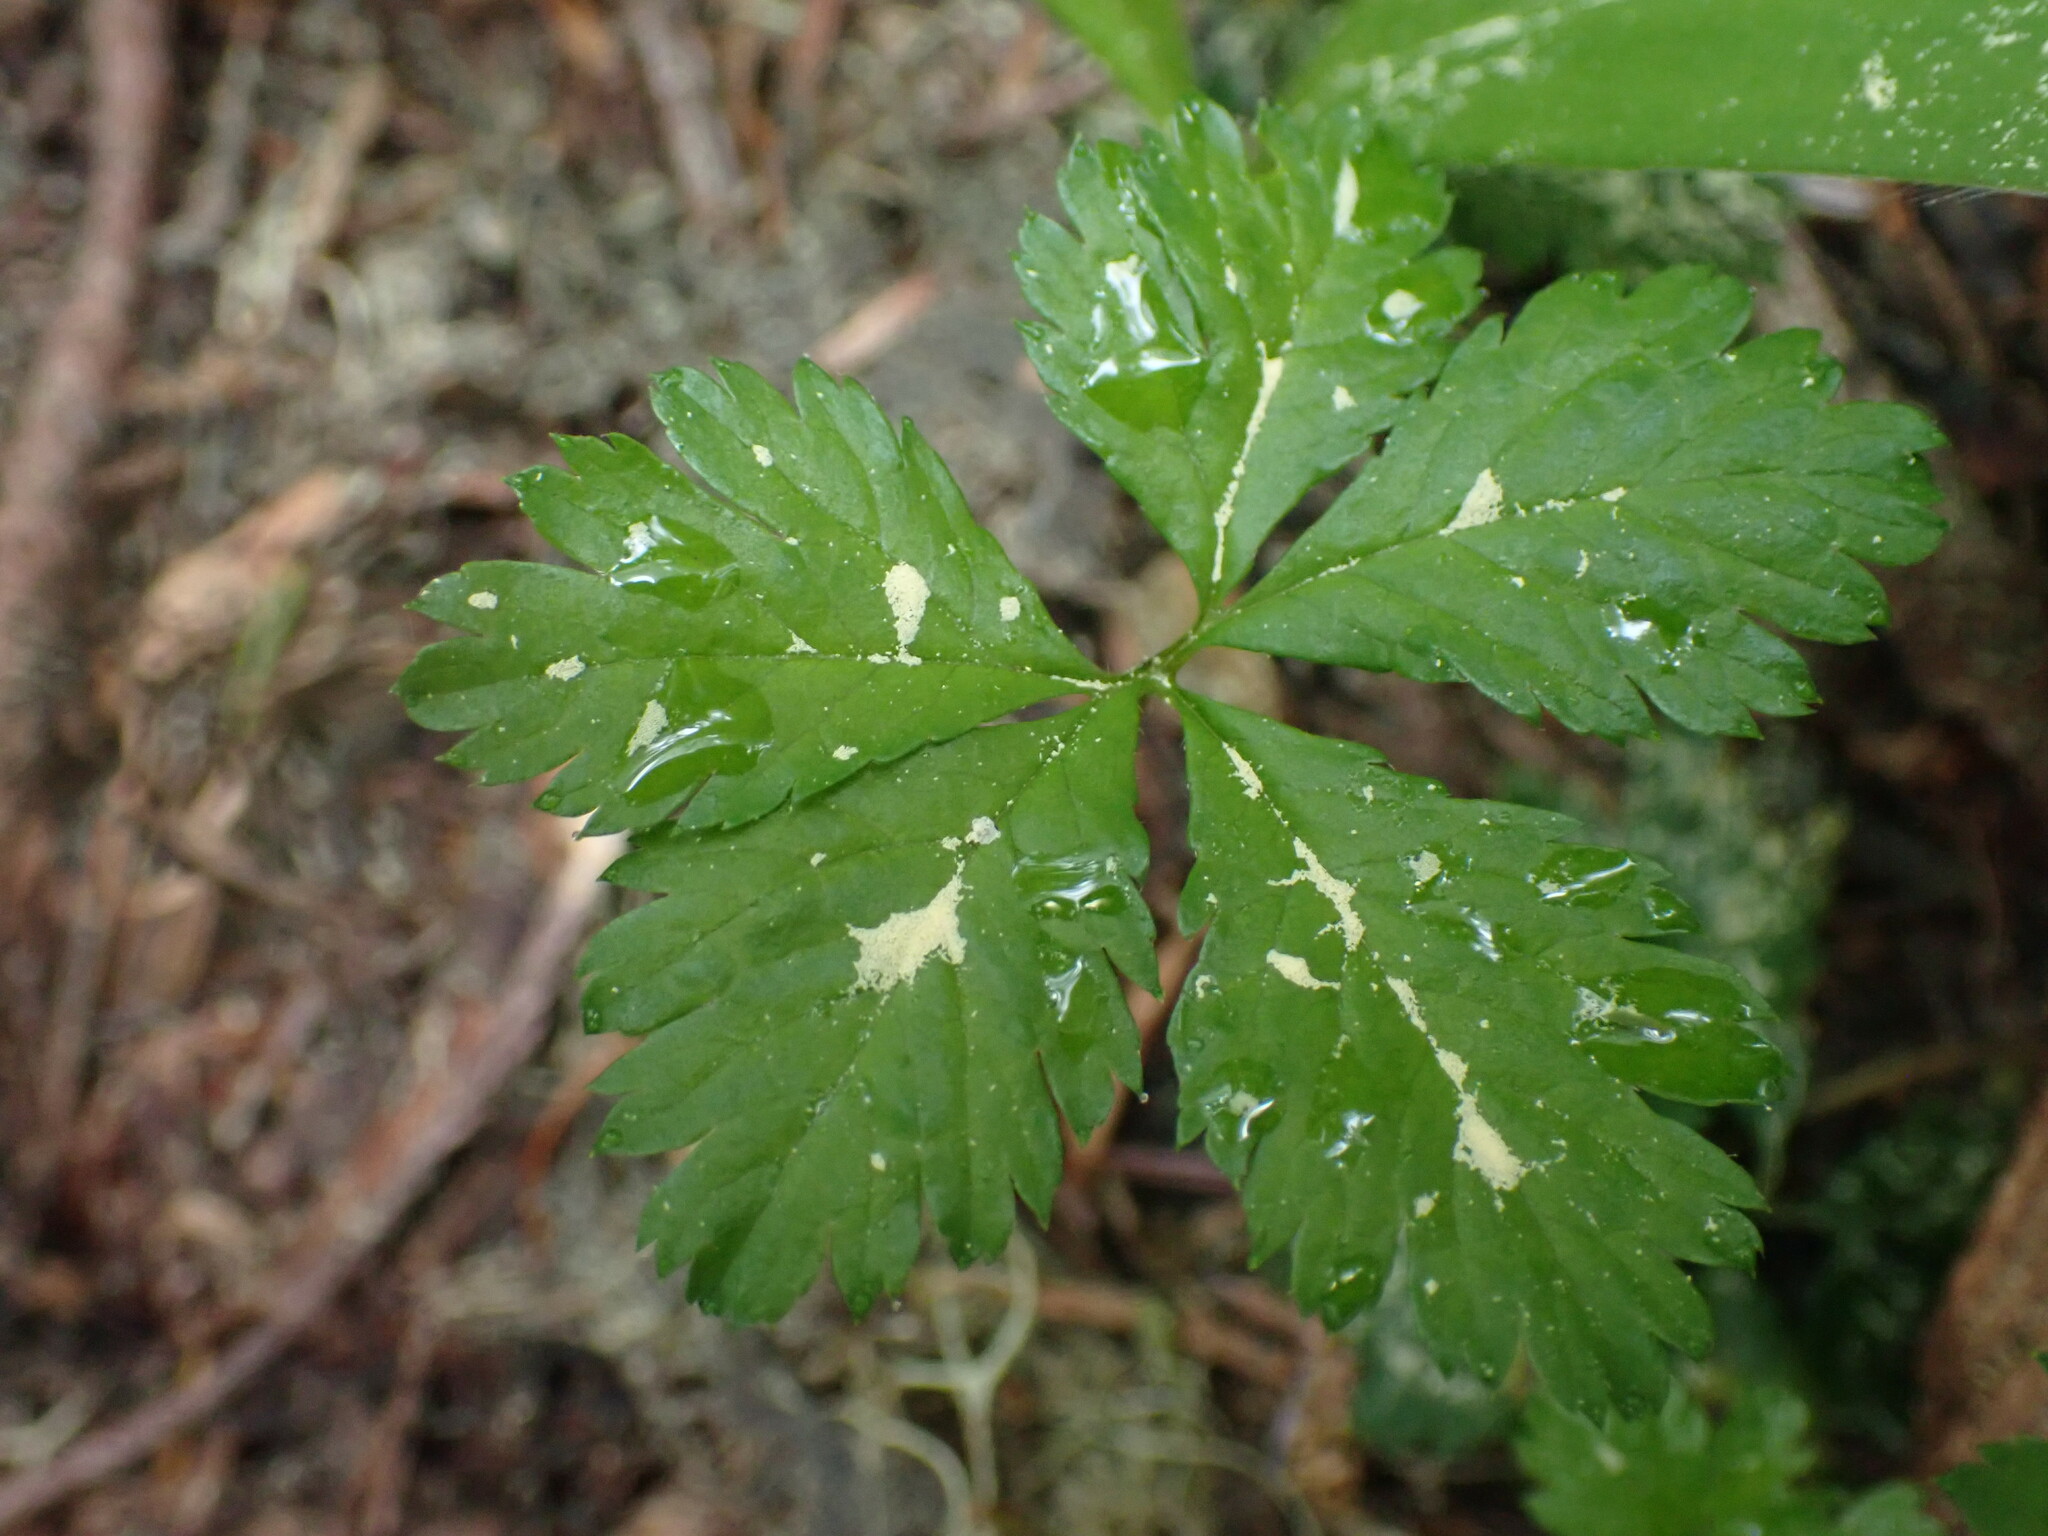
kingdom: Plantae
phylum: Tracheophyta
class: Magnoliopsida
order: Rosales
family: Rosaceae
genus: Rubus
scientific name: Rubus pedatus
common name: Creeping raspberry
